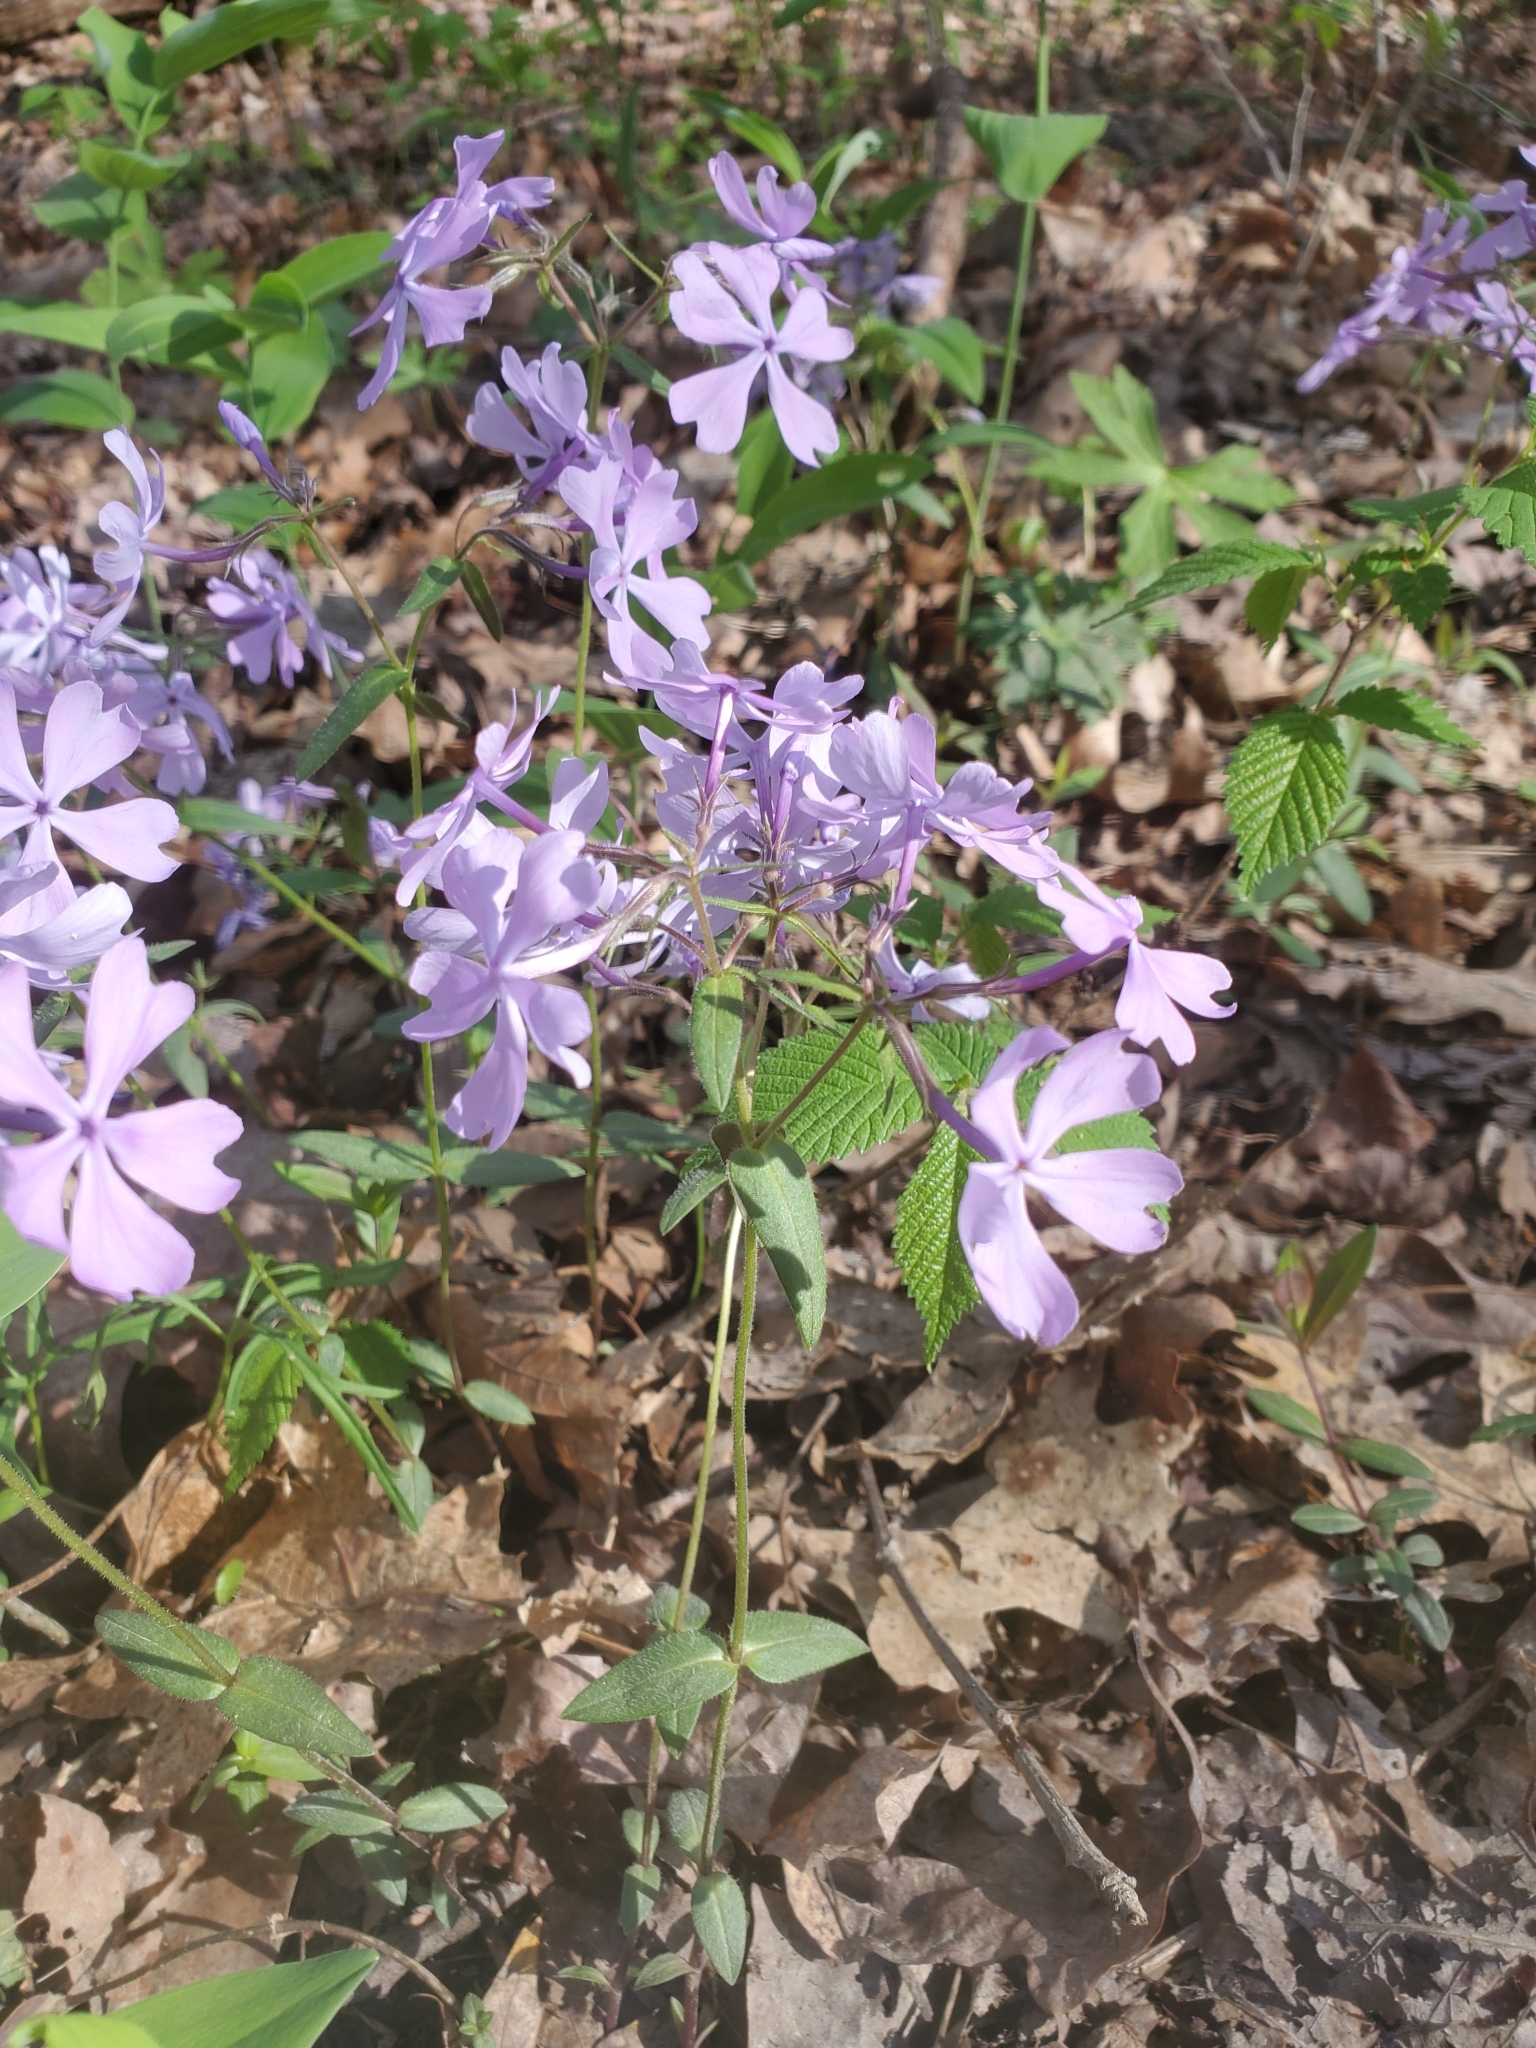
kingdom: Plantae
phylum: Tracheophyta
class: Magnoliopsida
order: Ericales
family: Polemoniaceae
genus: Phlox
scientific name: Phlox divaricata
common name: Blue phlox
